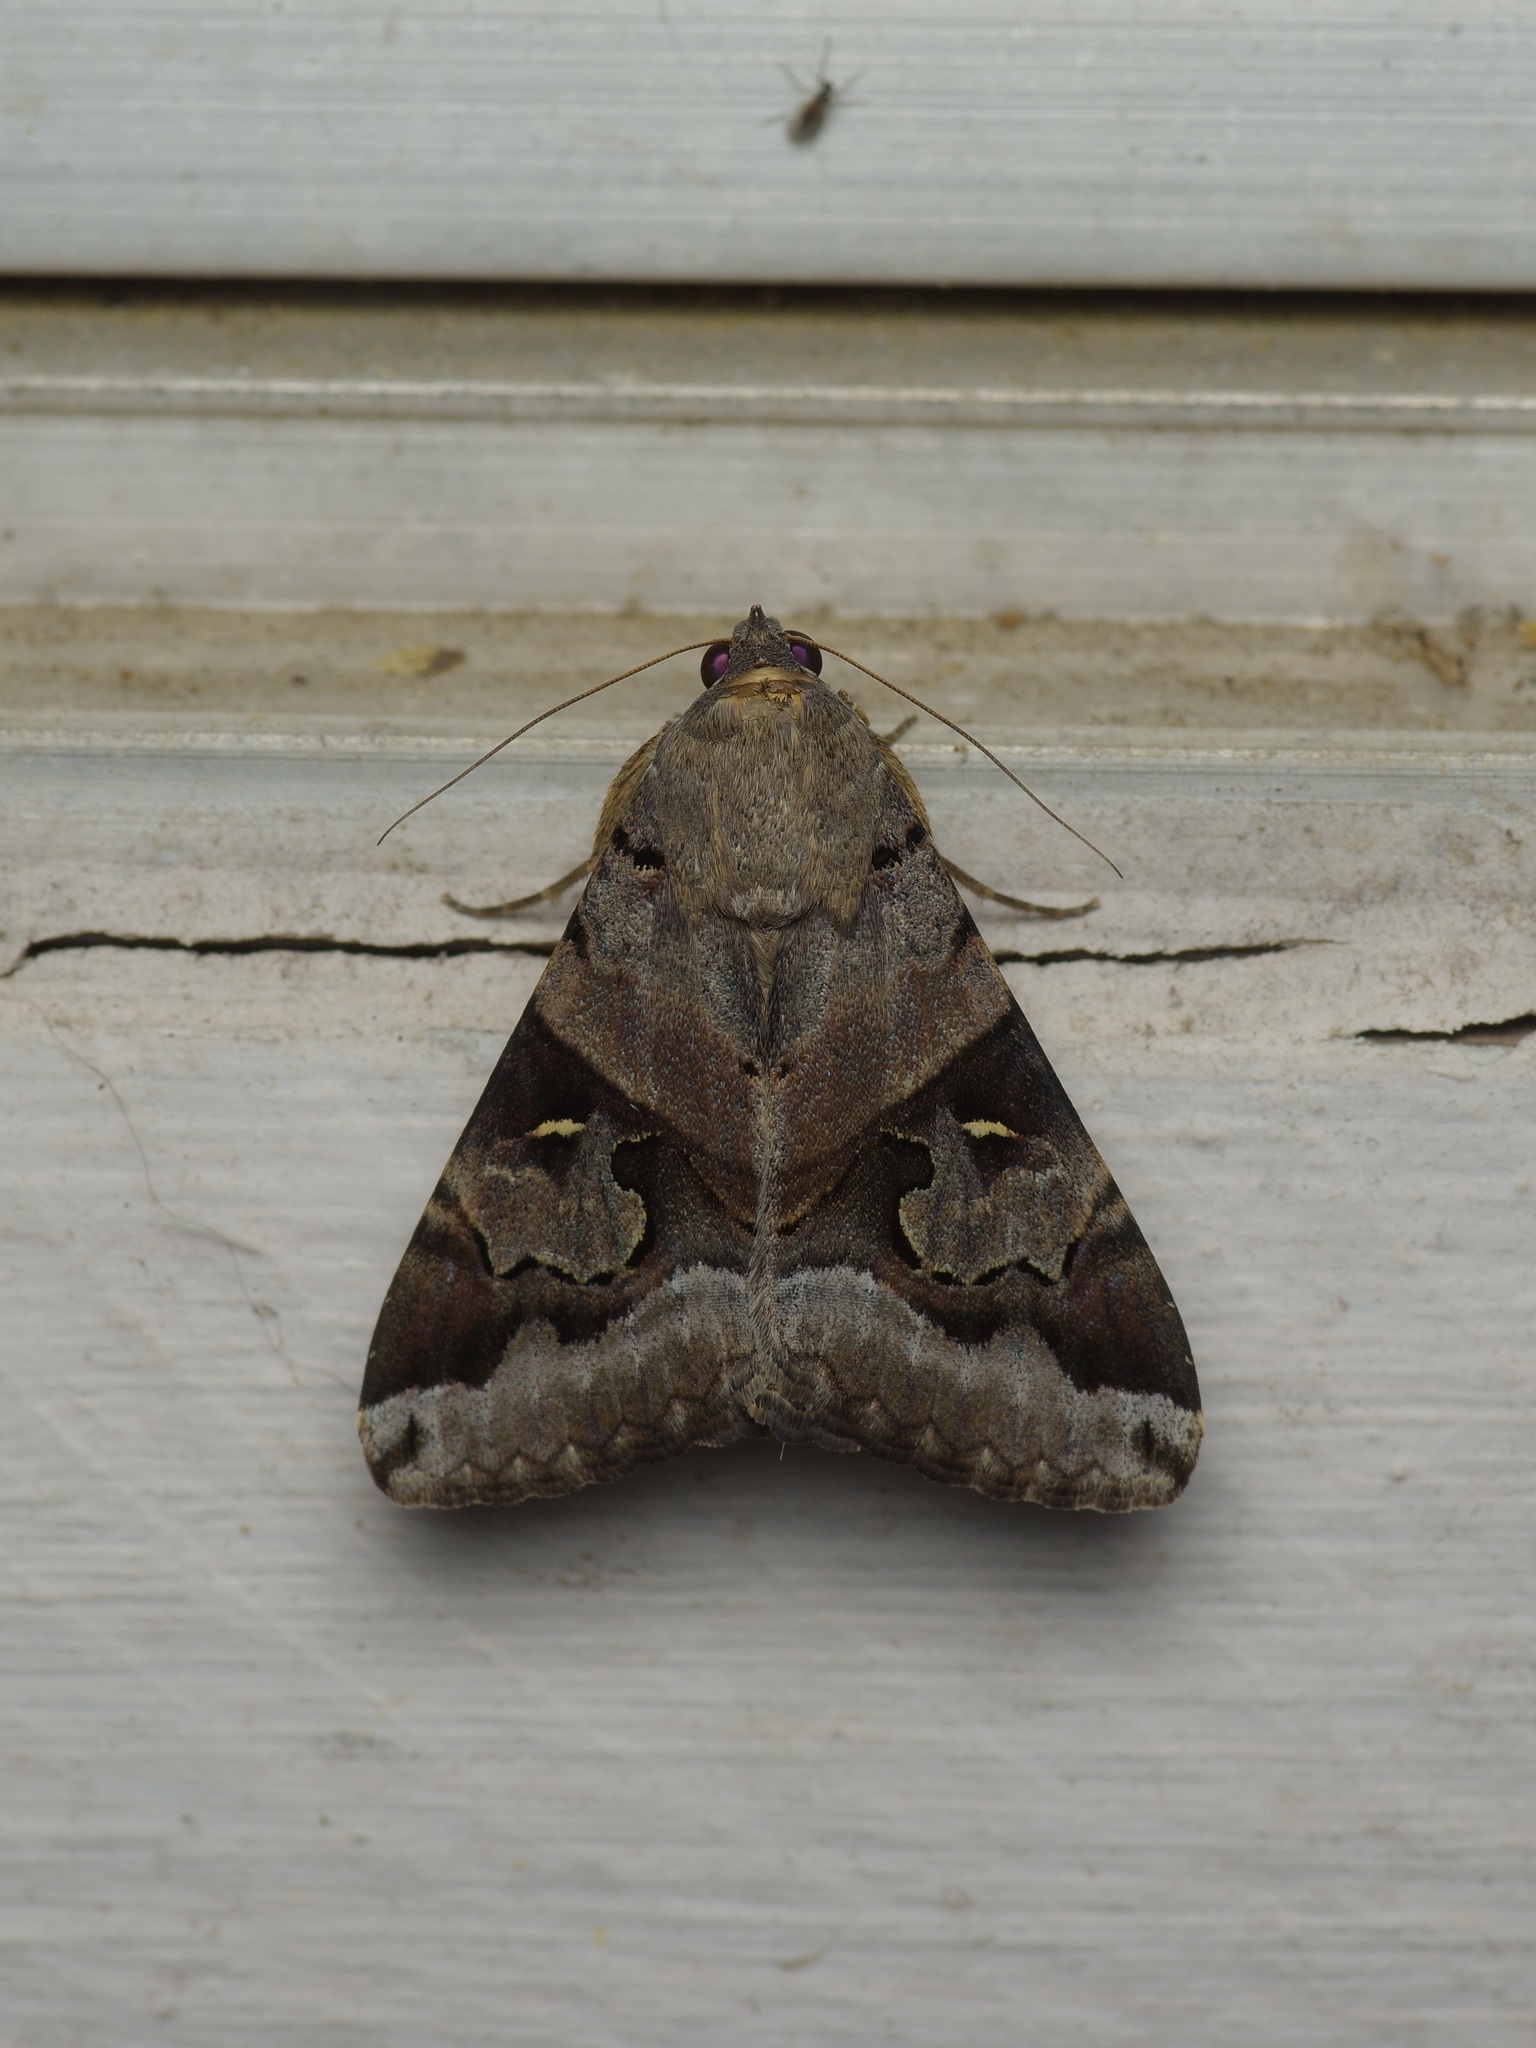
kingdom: Animalia
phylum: Arthropoda
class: Insecta
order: Lepidoptera
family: Erebidae
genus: Melipotis
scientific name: Melipotis indomita
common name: Moth
